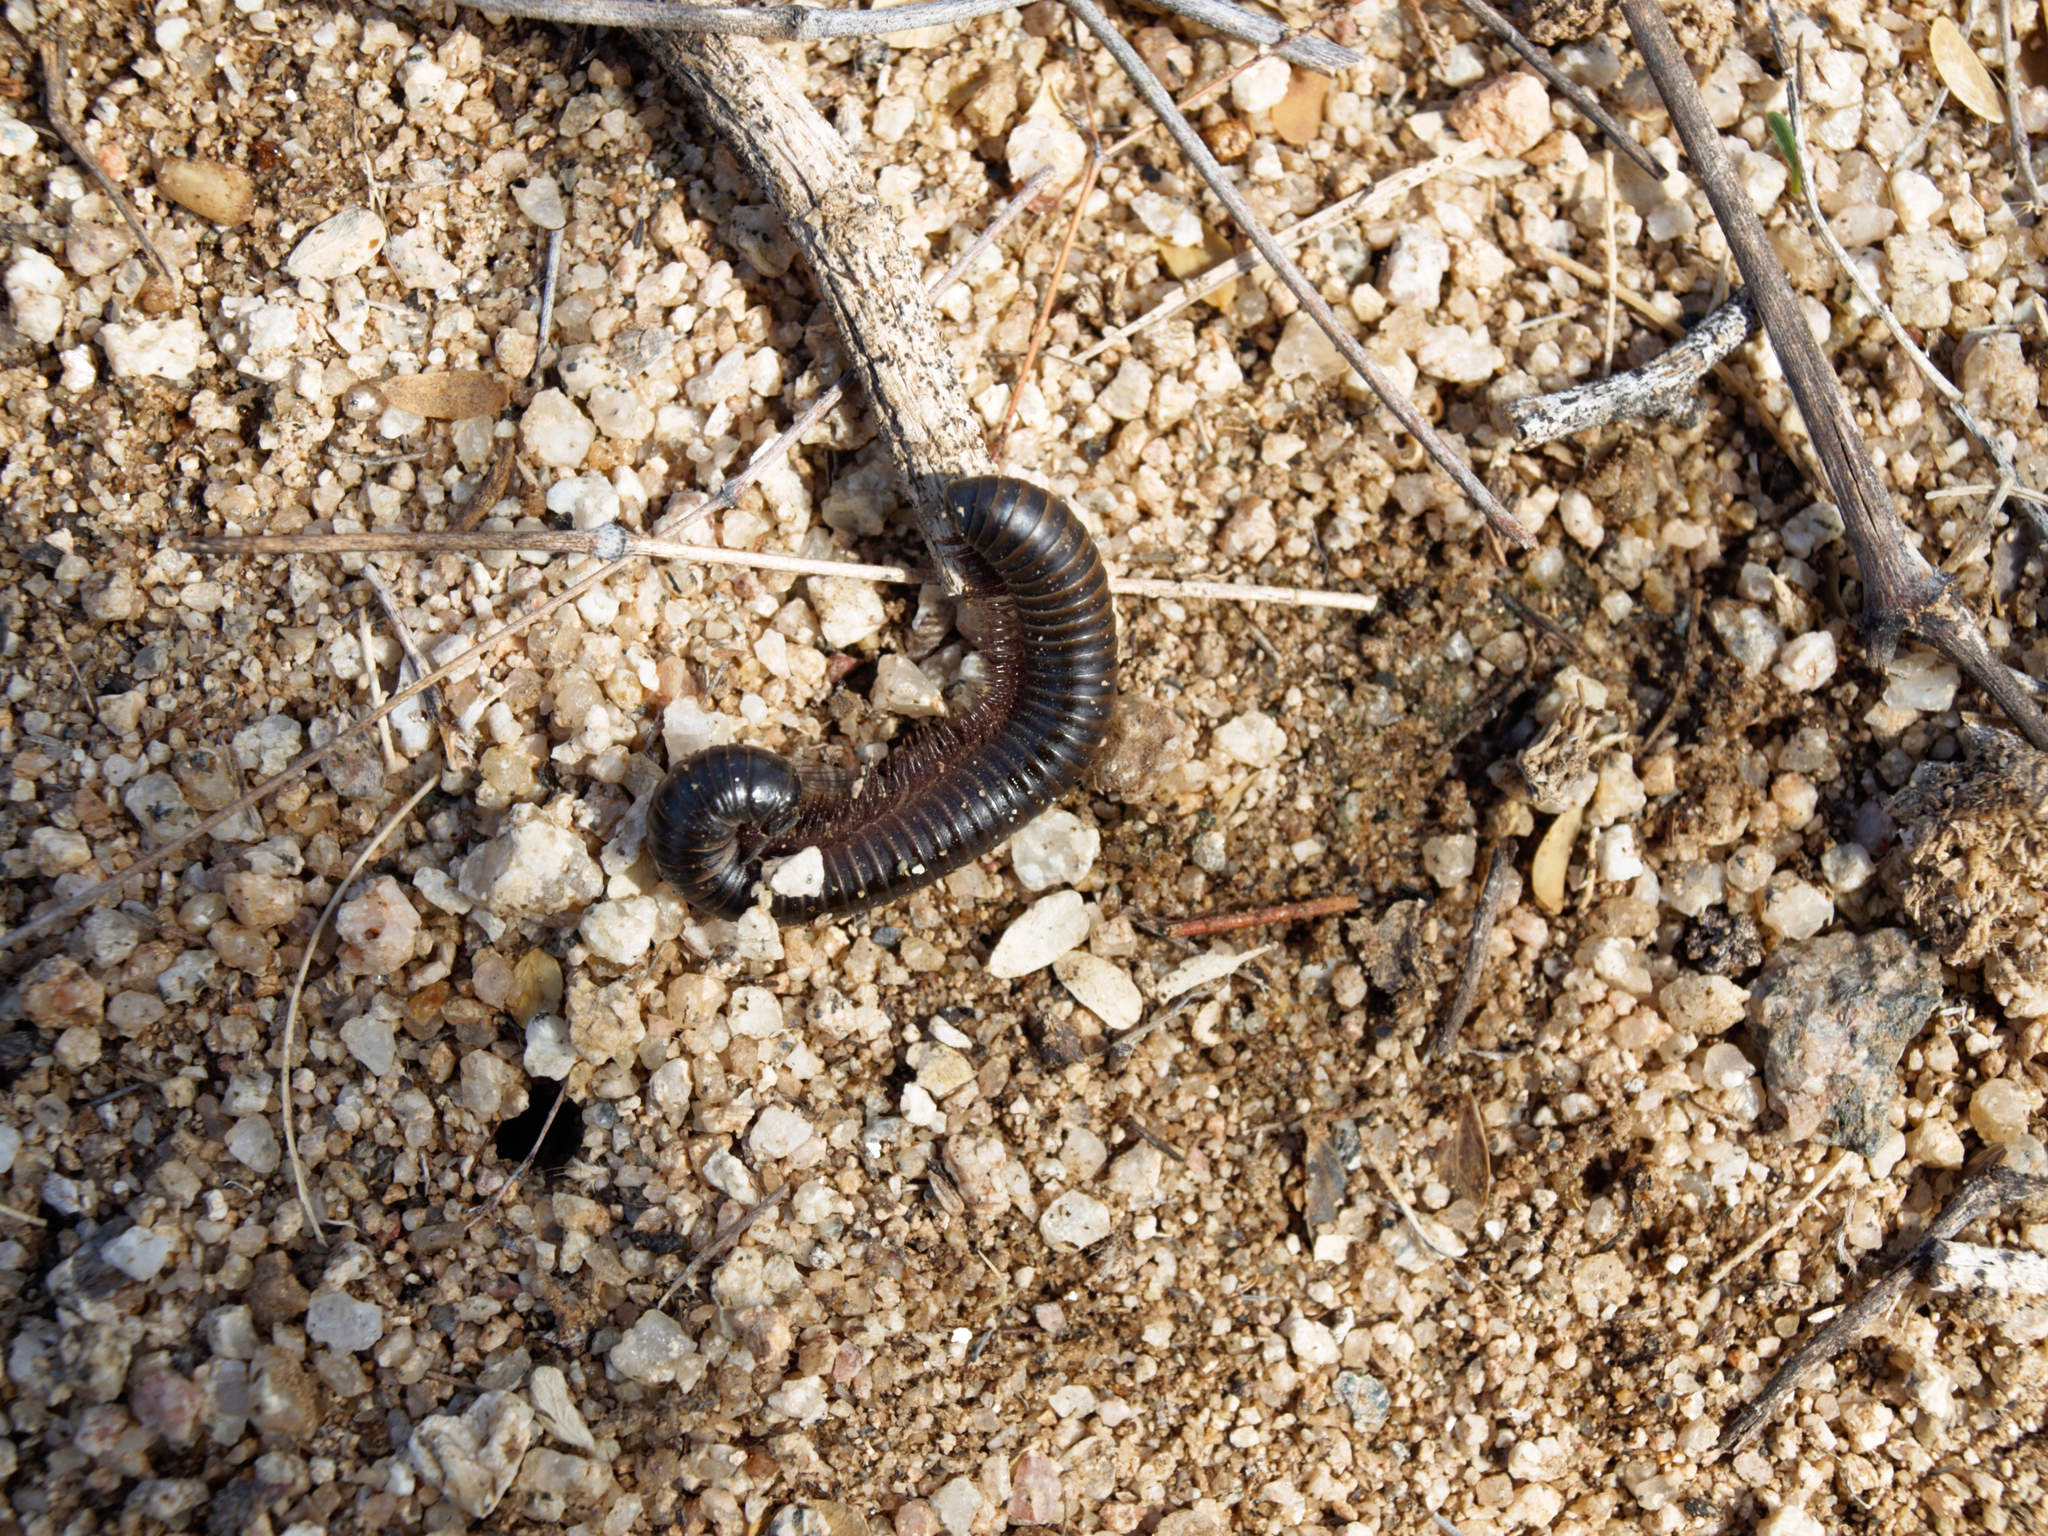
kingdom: Animalia
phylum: Arthropoda
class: Diplopoda
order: Spirostreptida
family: Spirostreptidae
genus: Orthoporus
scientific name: Orthoporus texicolens
